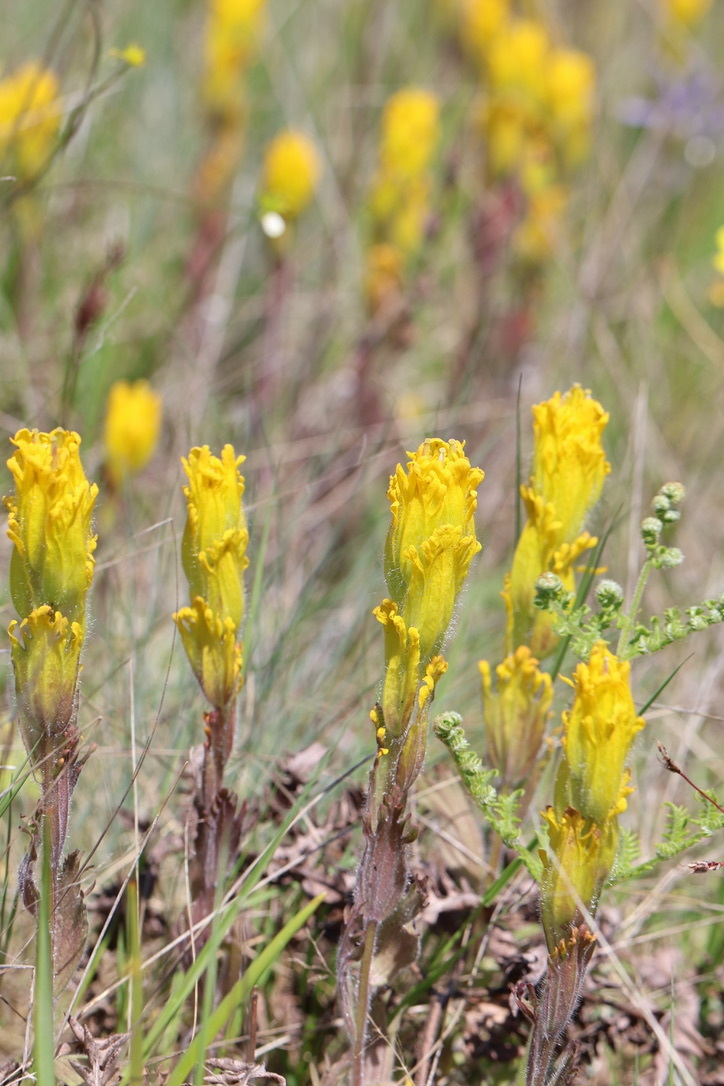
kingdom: Plantae
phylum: Tracheophyta
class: Magnoliopsida
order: Lamiales
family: Orobanchaceae
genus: Castilleja
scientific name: Castilleja levisecta
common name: Golden paintbrush
